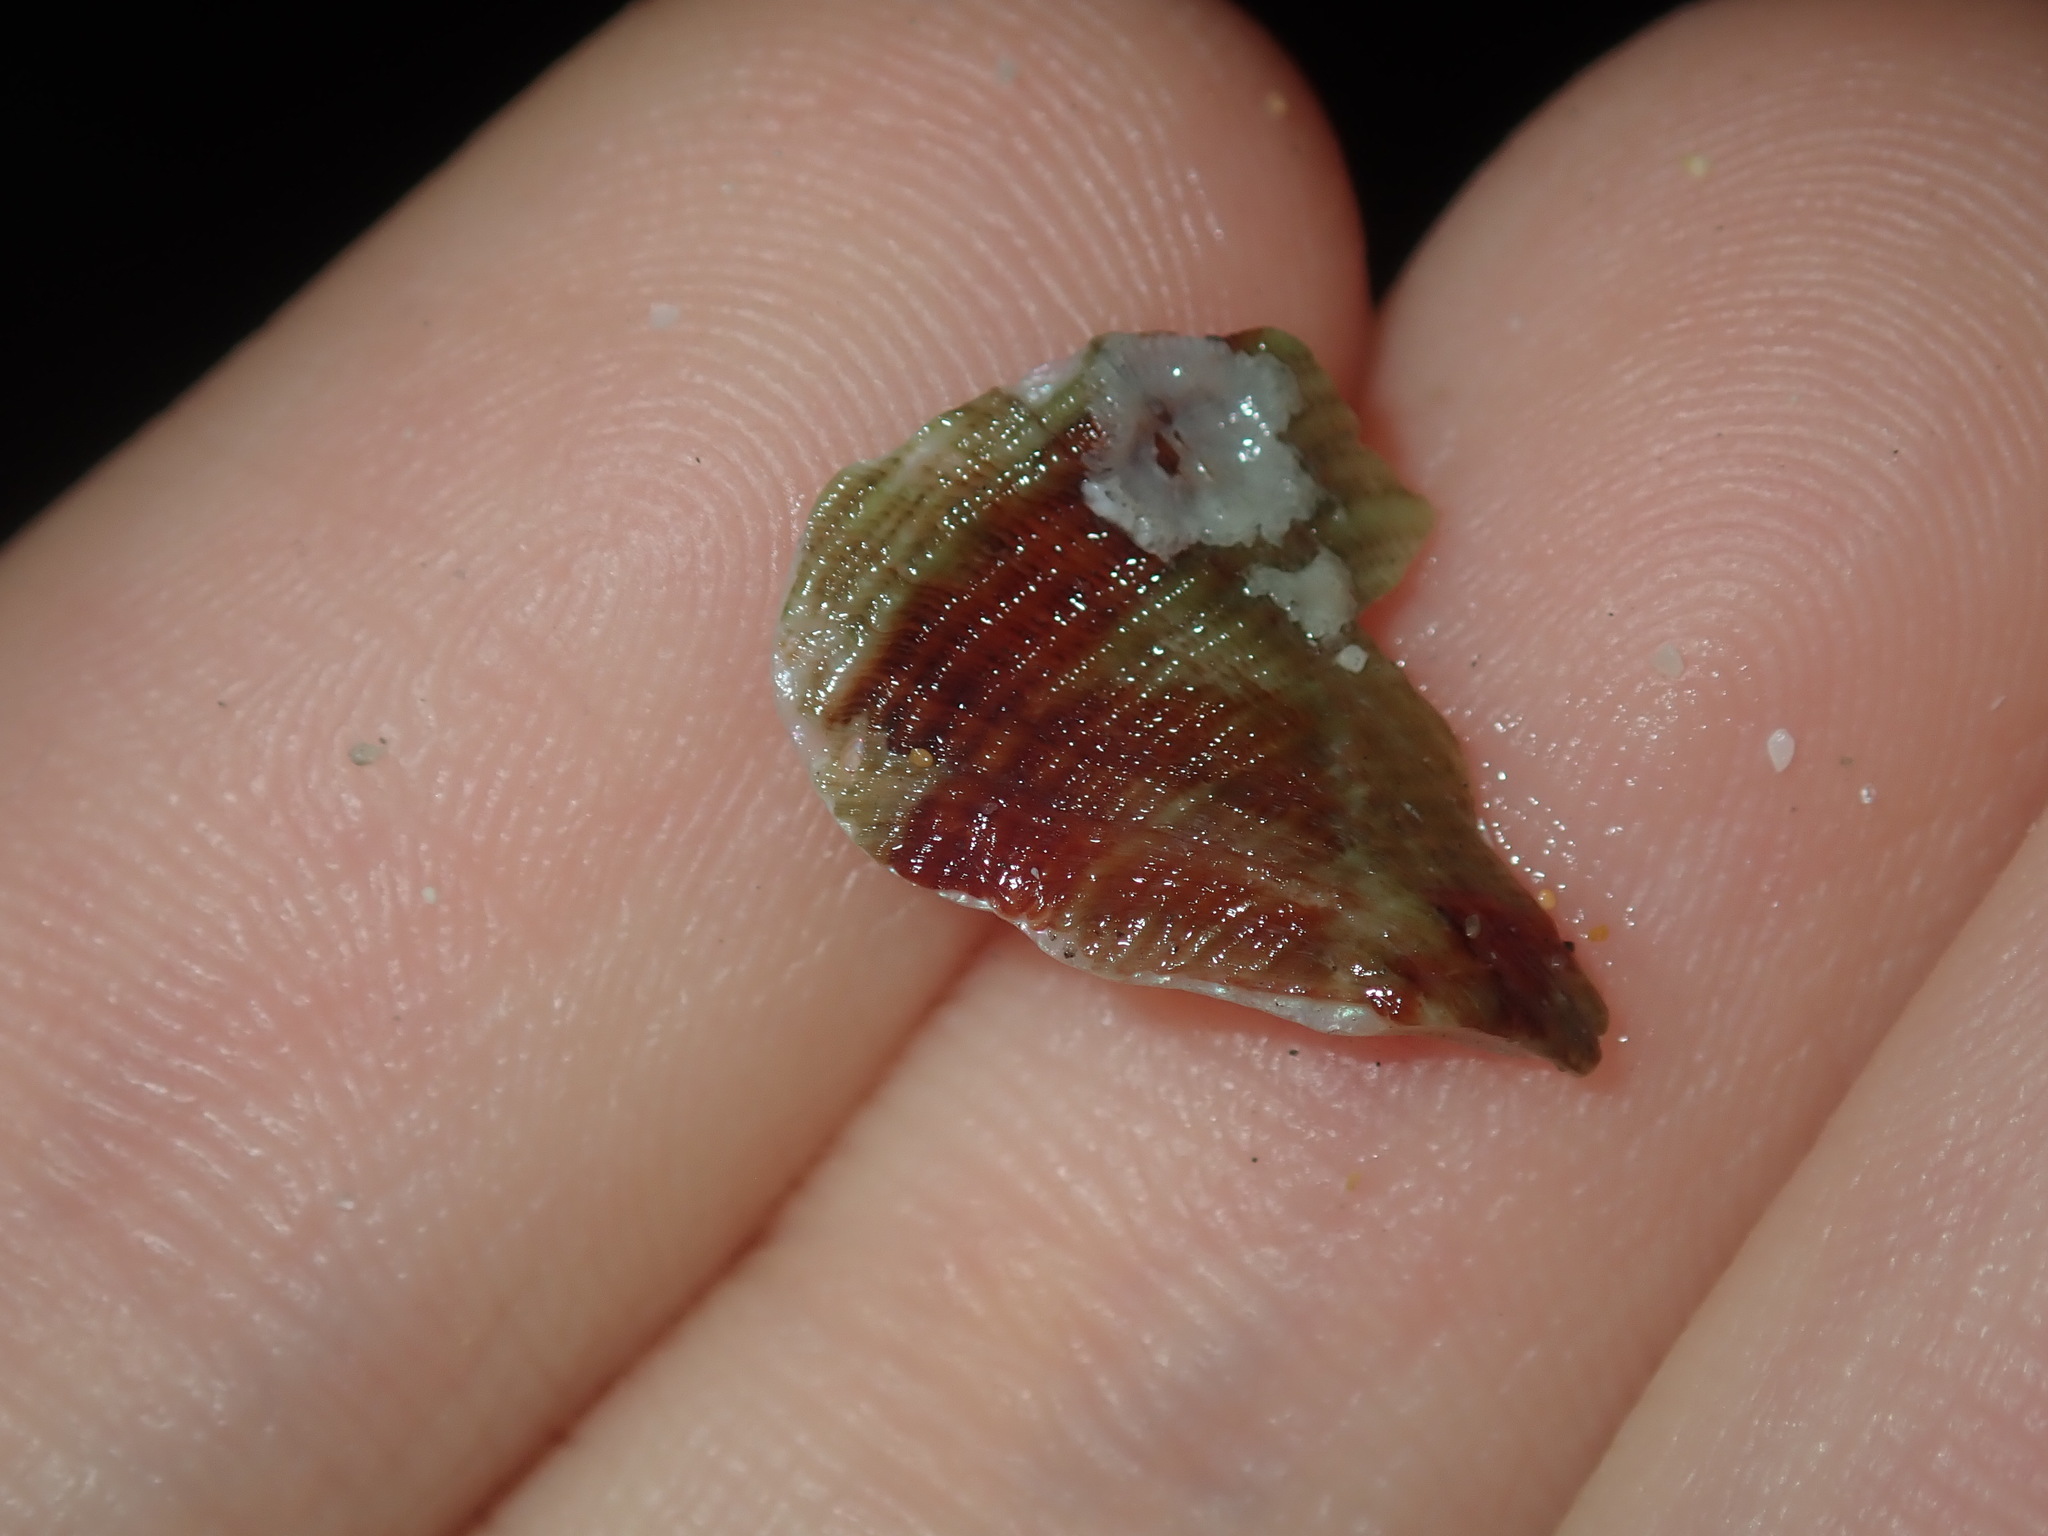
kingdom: Animalia
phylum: Mollusca
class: Gastropoda
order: Lepetellida
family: Haliotidae
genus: Haliotis
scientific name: Haliotis coccoradiata
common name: Reddish-rayed abalone
